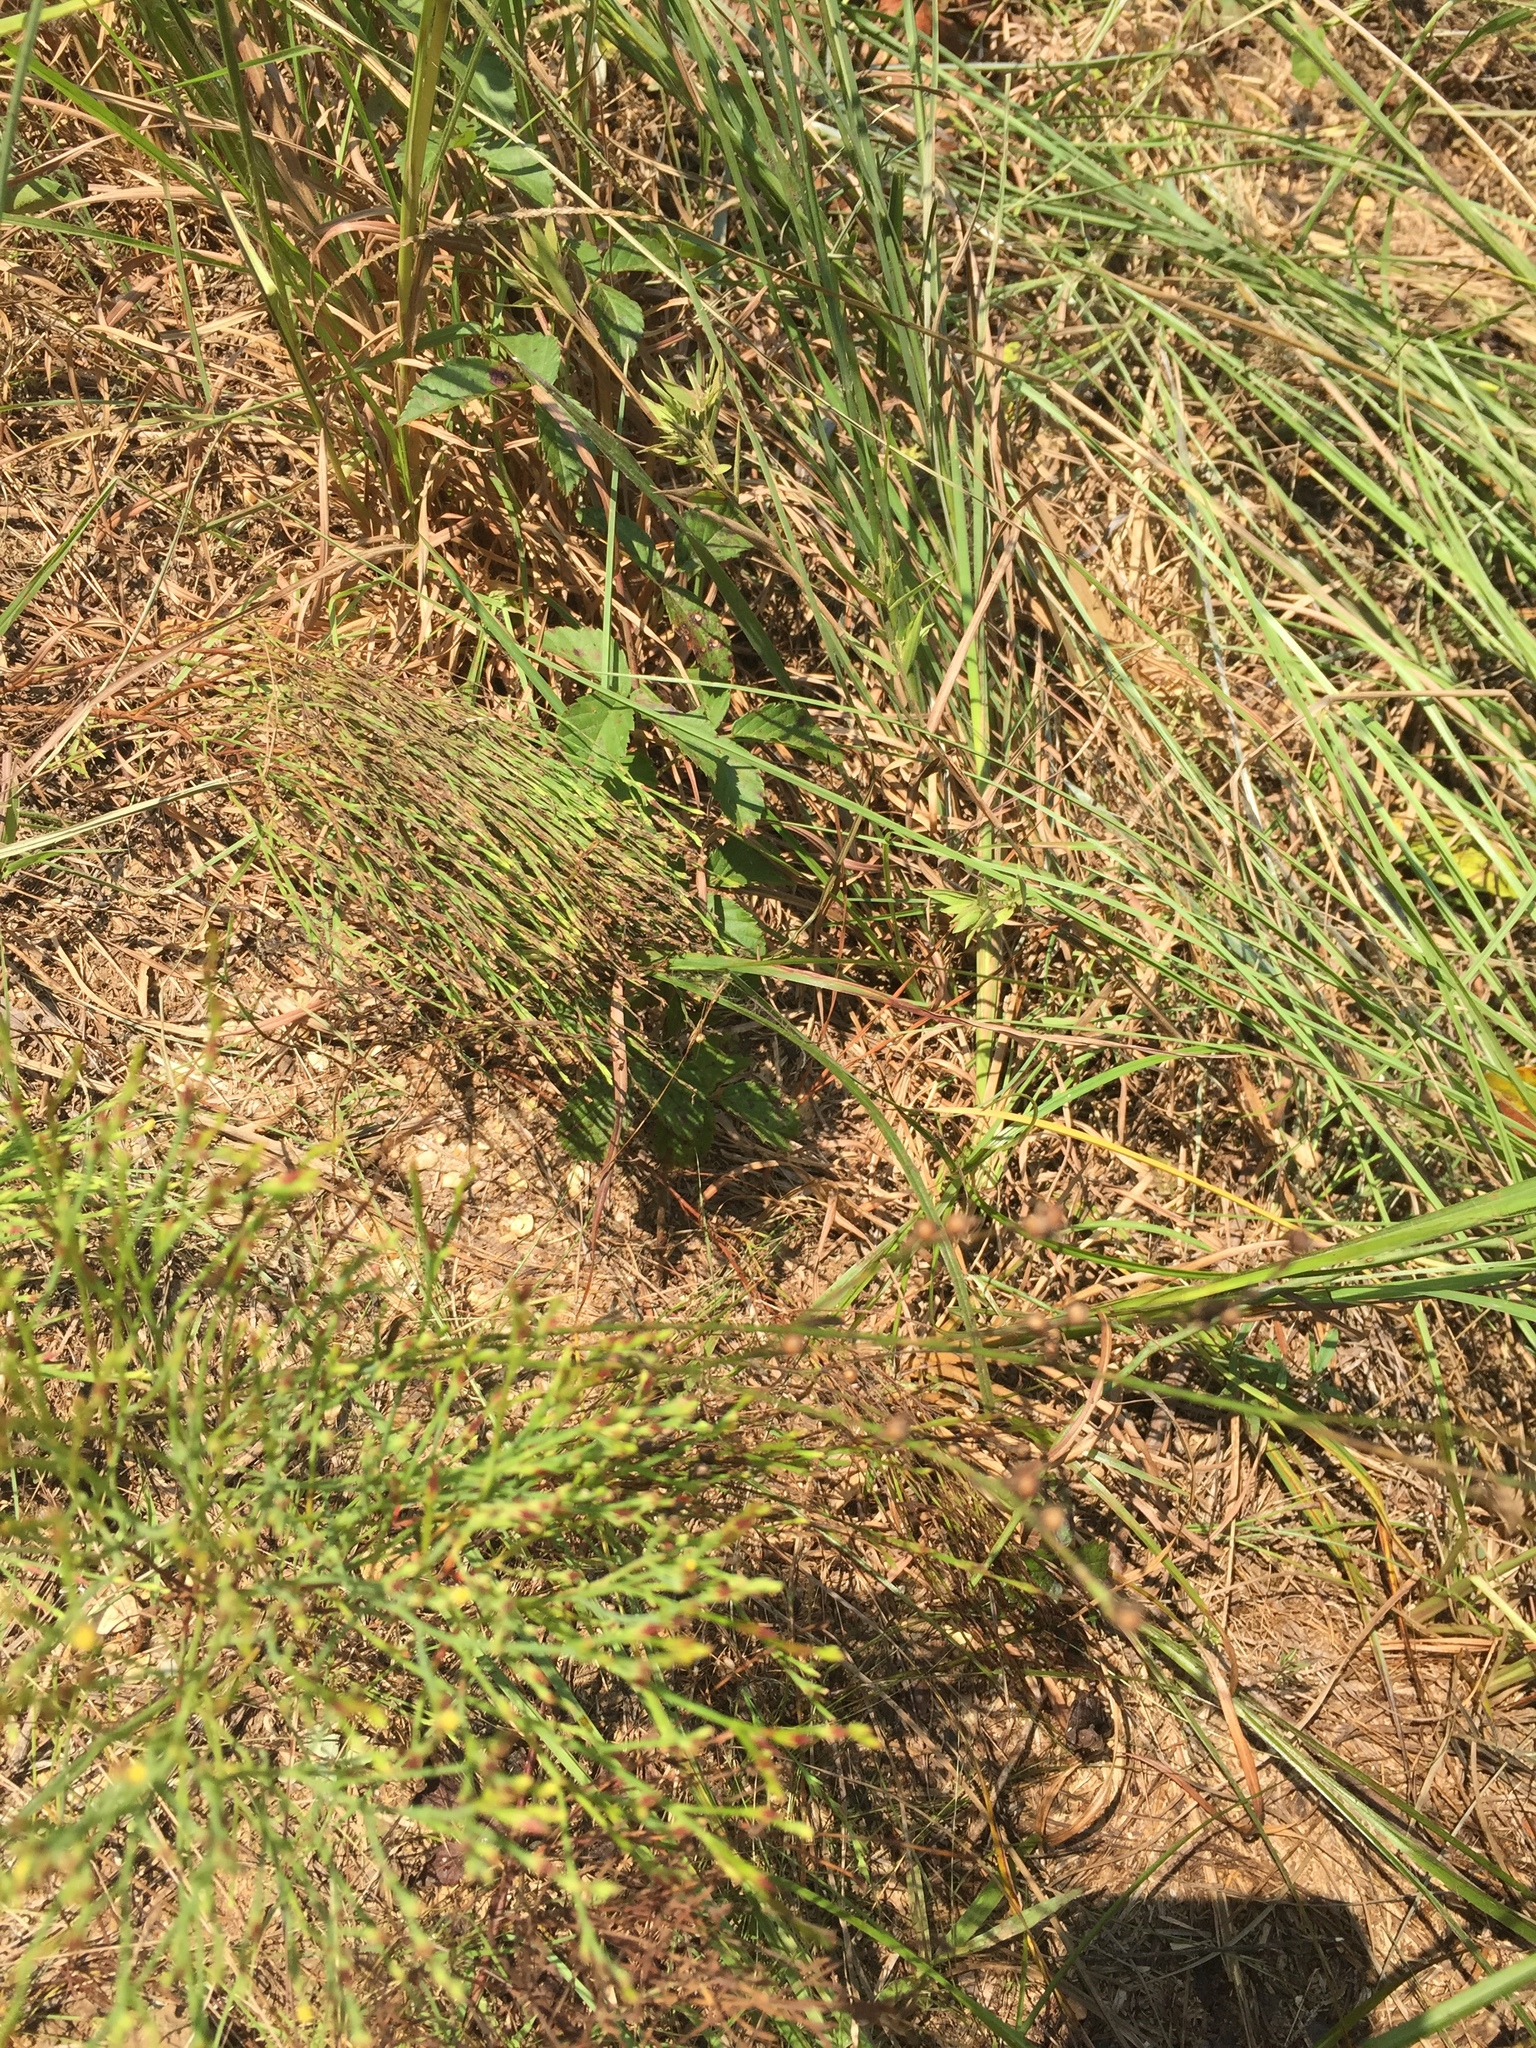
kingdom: Plantae
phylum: Tracheophyta
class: Magnoliopsida
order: Malpighiales
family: Hypericaceae
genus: Hypericum
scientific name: Hypericum gentianoides
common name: Gentian-leaved st. john's-wort
